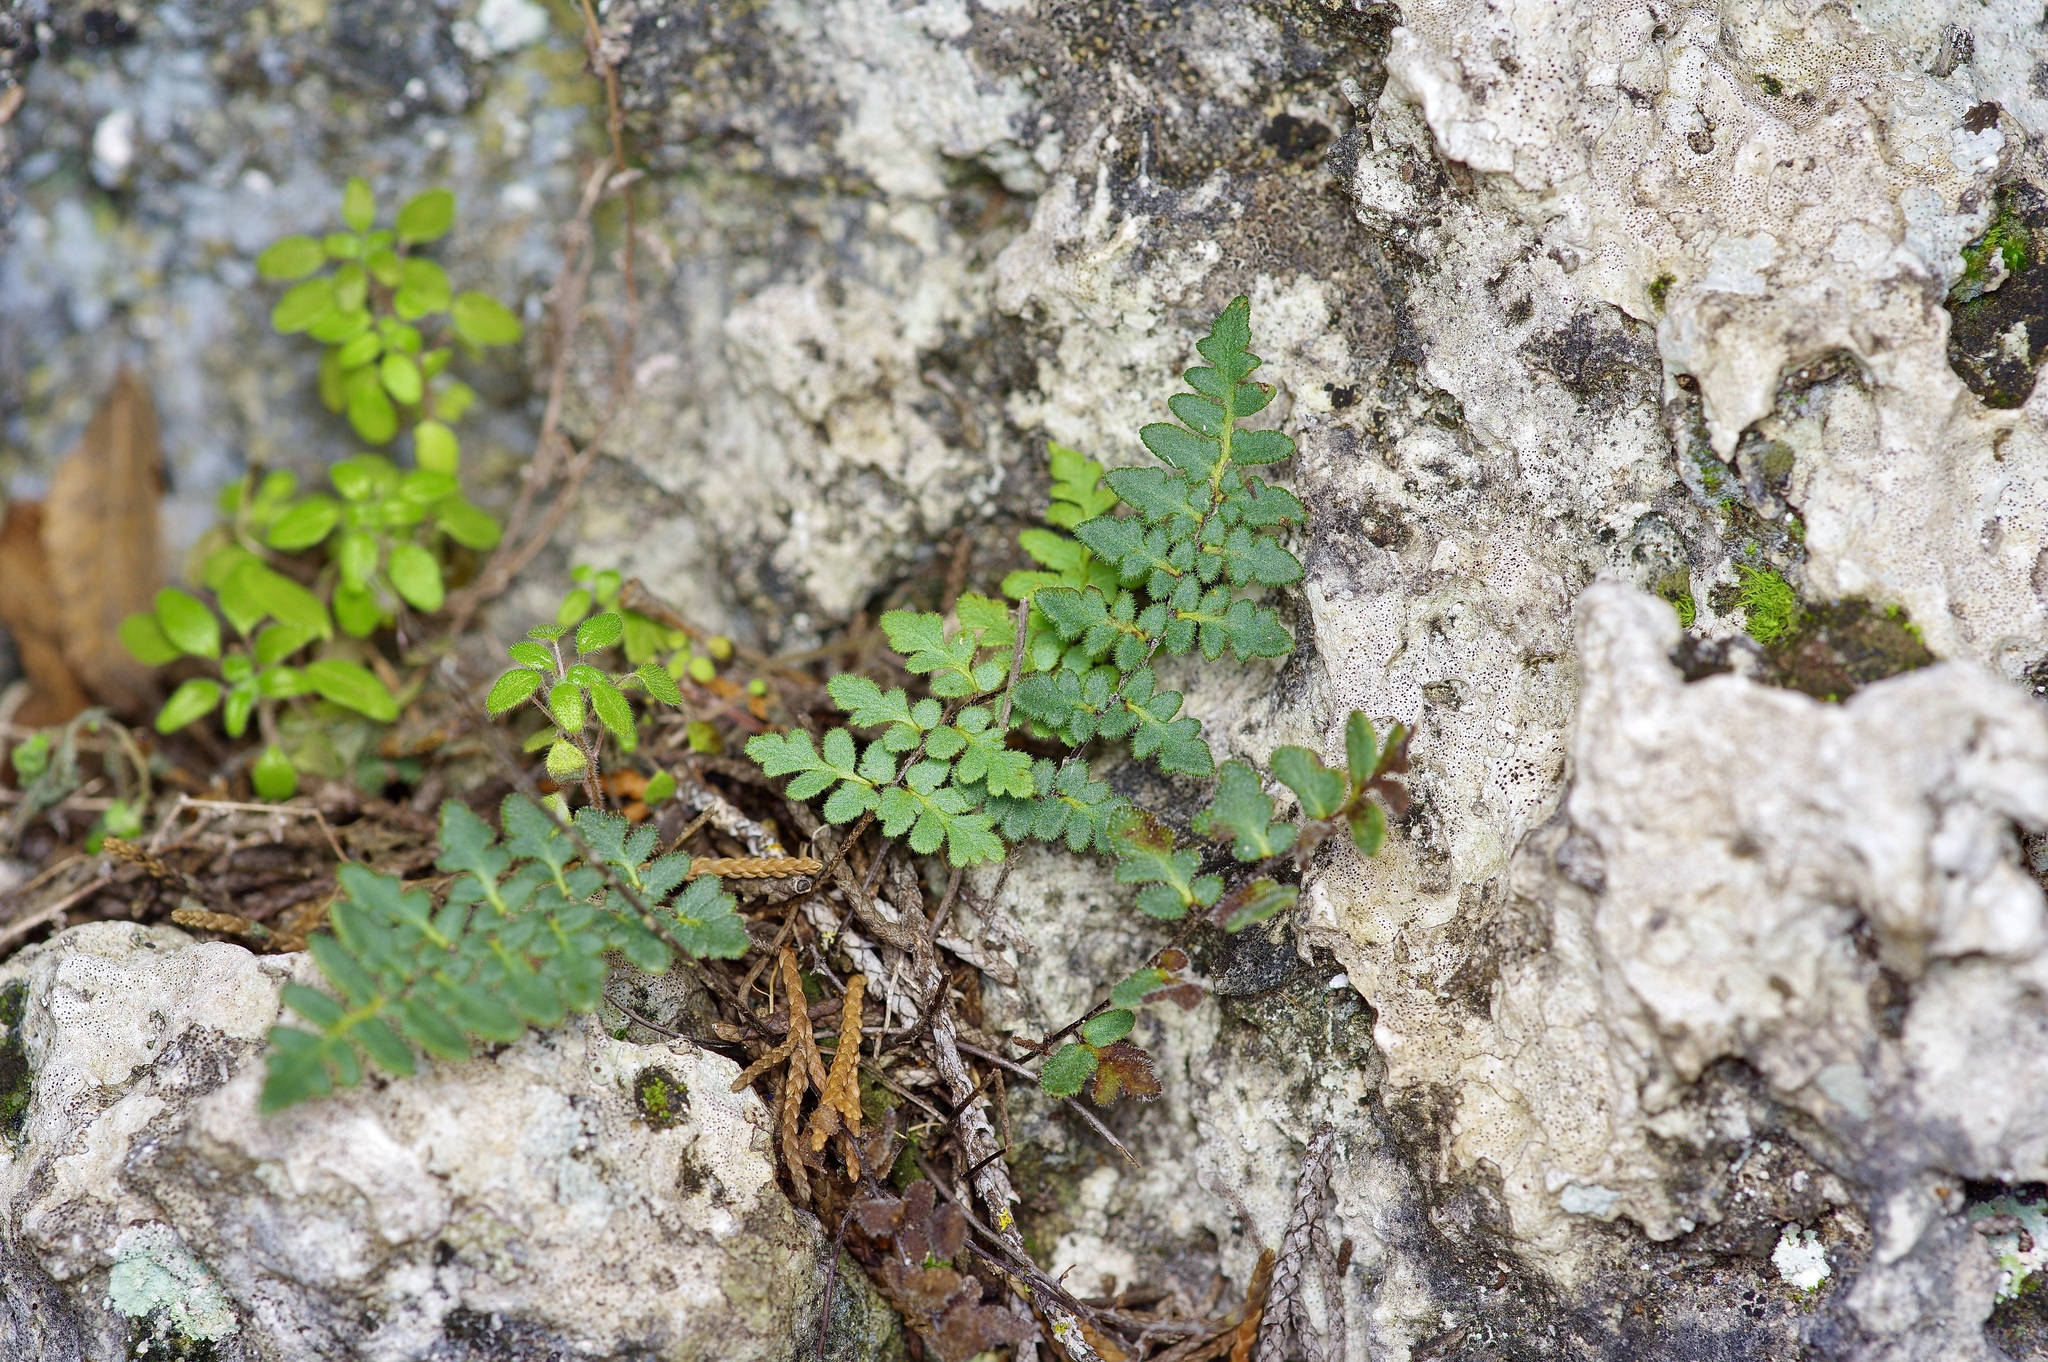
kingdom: Plantae
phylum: Tracheophyta
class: Polypodiopsida
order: Polypodiales
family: Pteridaceae
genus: Myriopteris
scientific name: Myriopteris scabra
